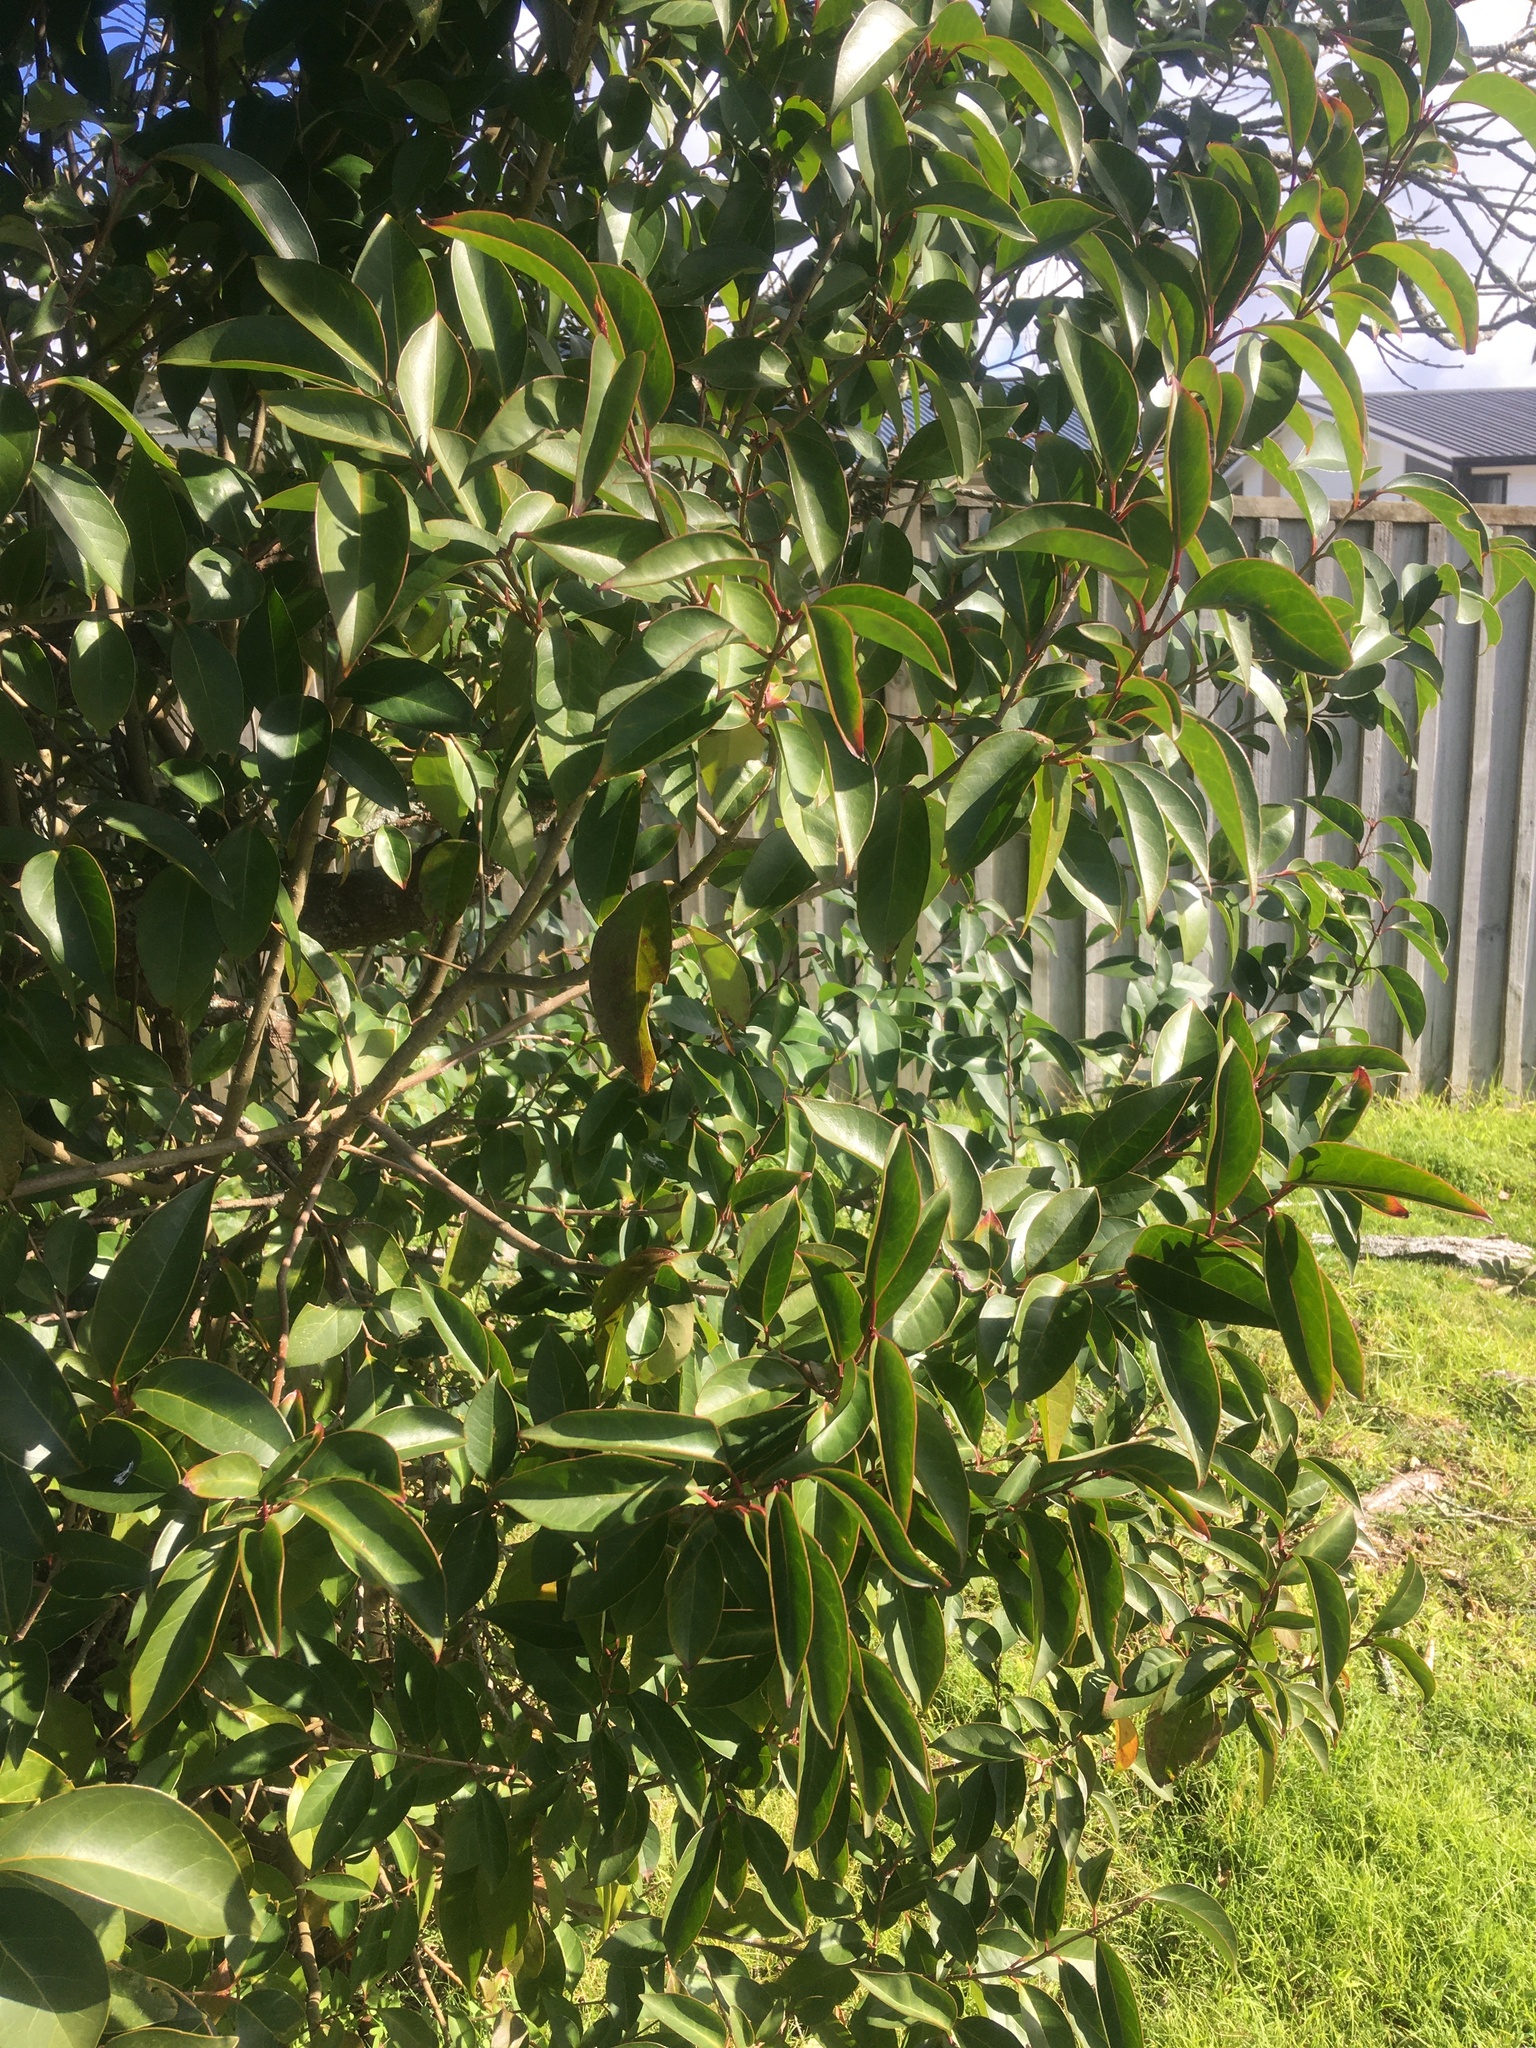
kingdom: Plantae
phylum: Tracheophyta
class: Magnoliopsida
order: Lamiales
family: Oleaceae
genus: Ligustrum
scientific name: Ligustrum lucidum
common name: Glossy privet
